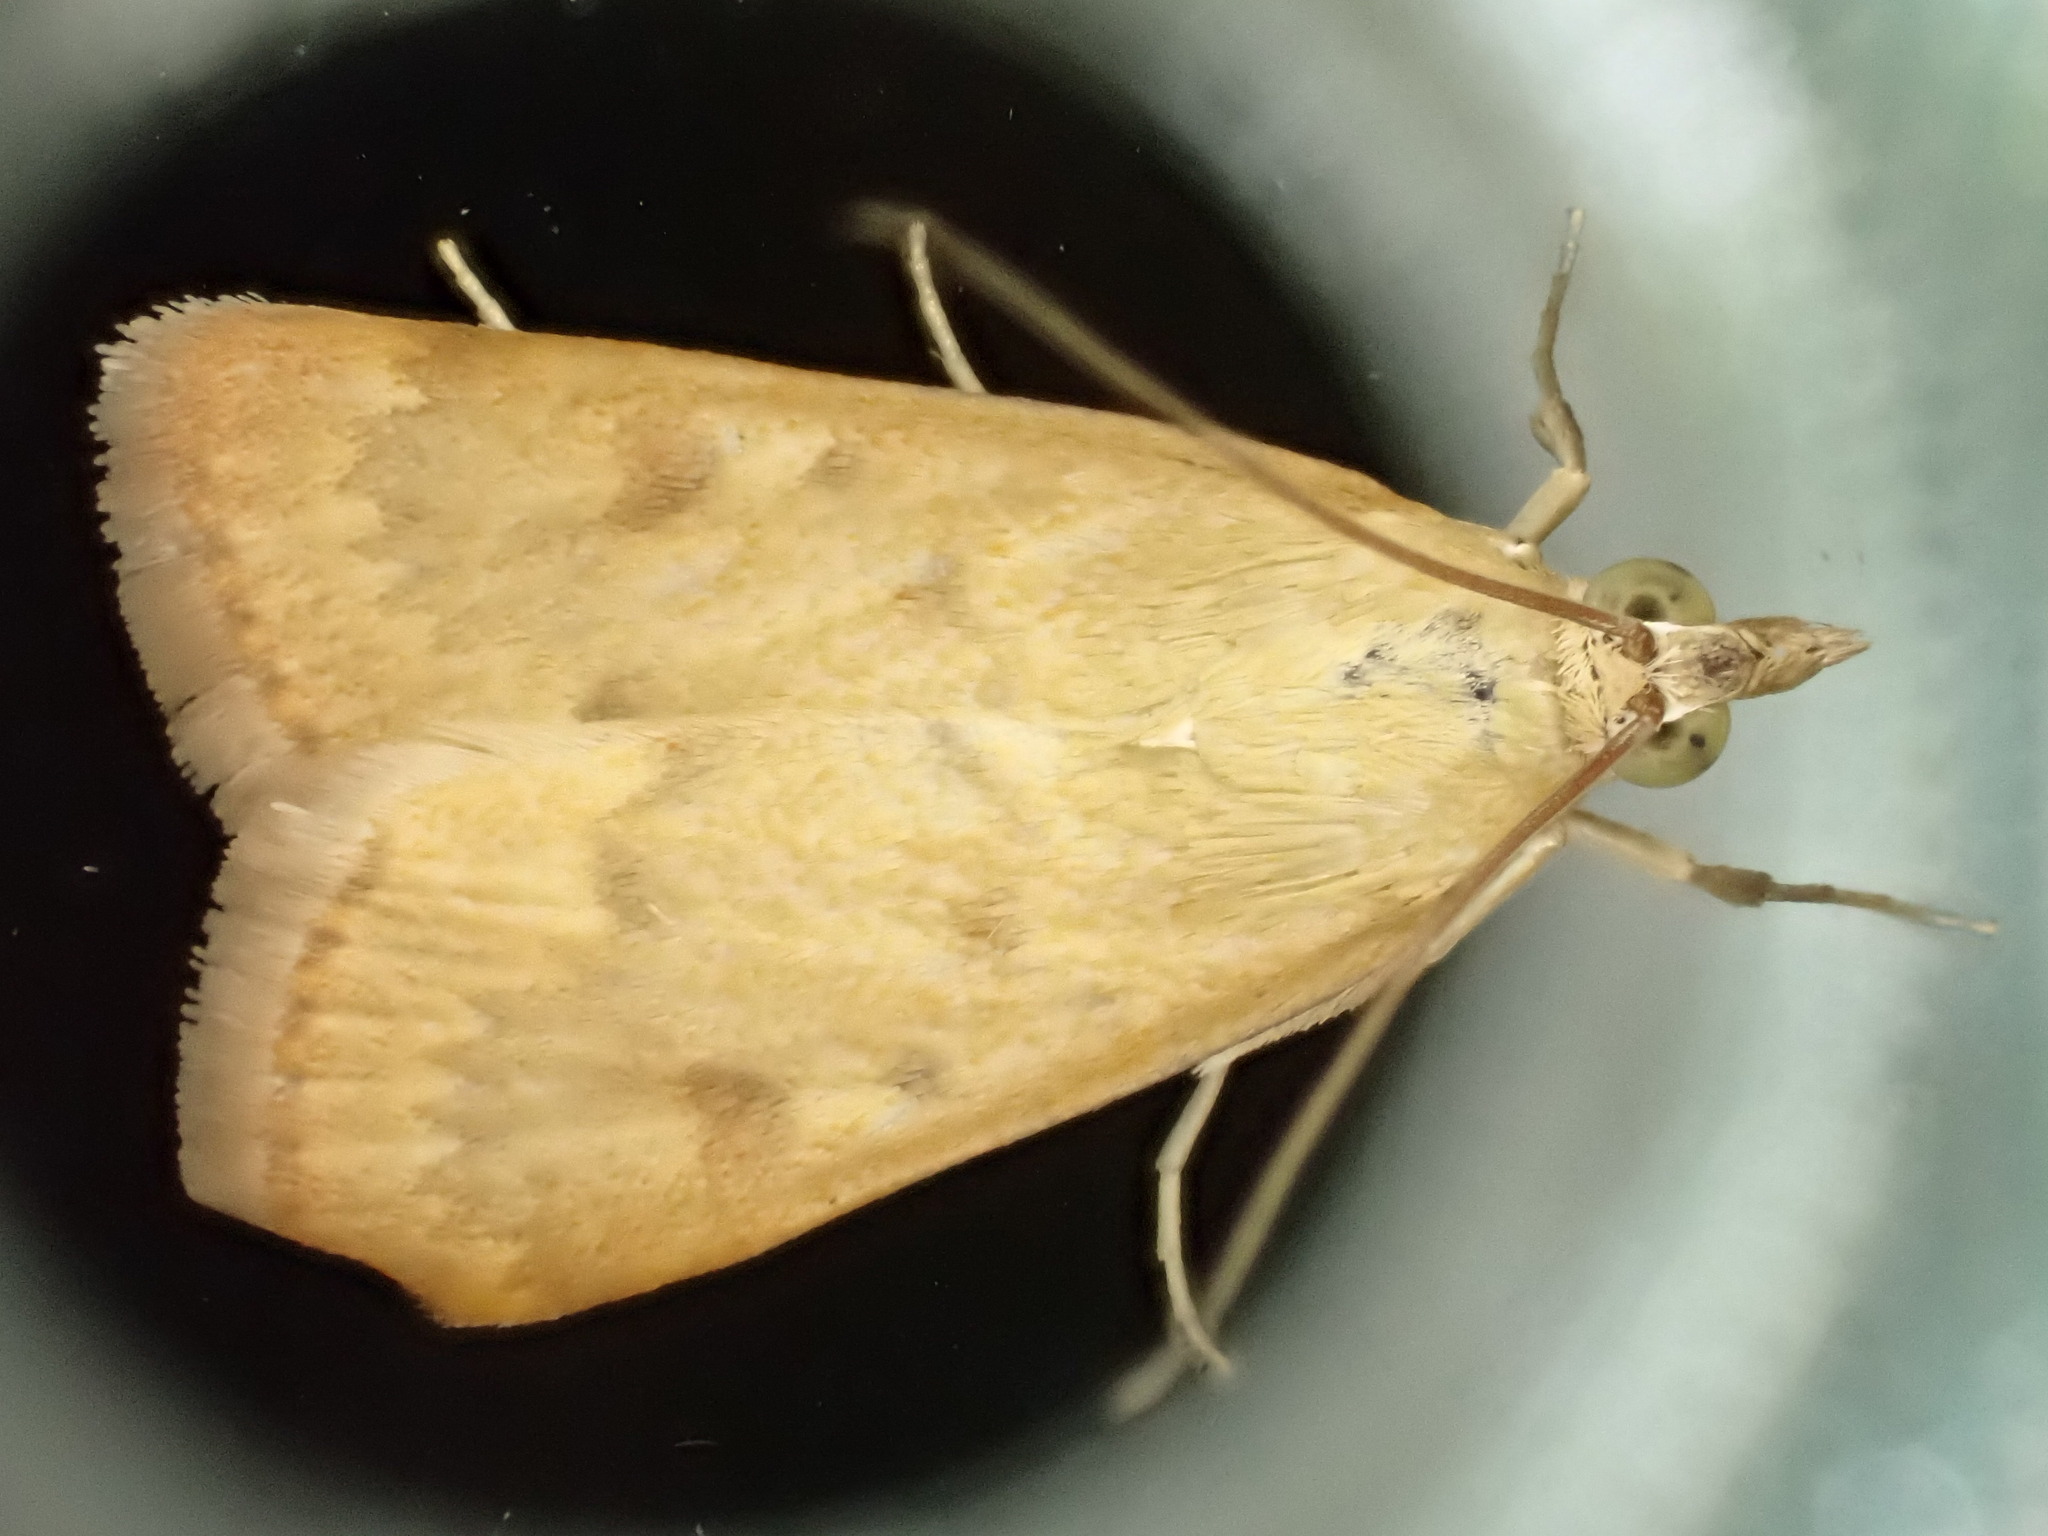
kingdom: Animalia
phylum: Arthropoda
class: Insecta
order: Lepidoptera
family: Crambidae
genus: Achyra
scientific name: Achyra rantalis
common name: Garden webworm
